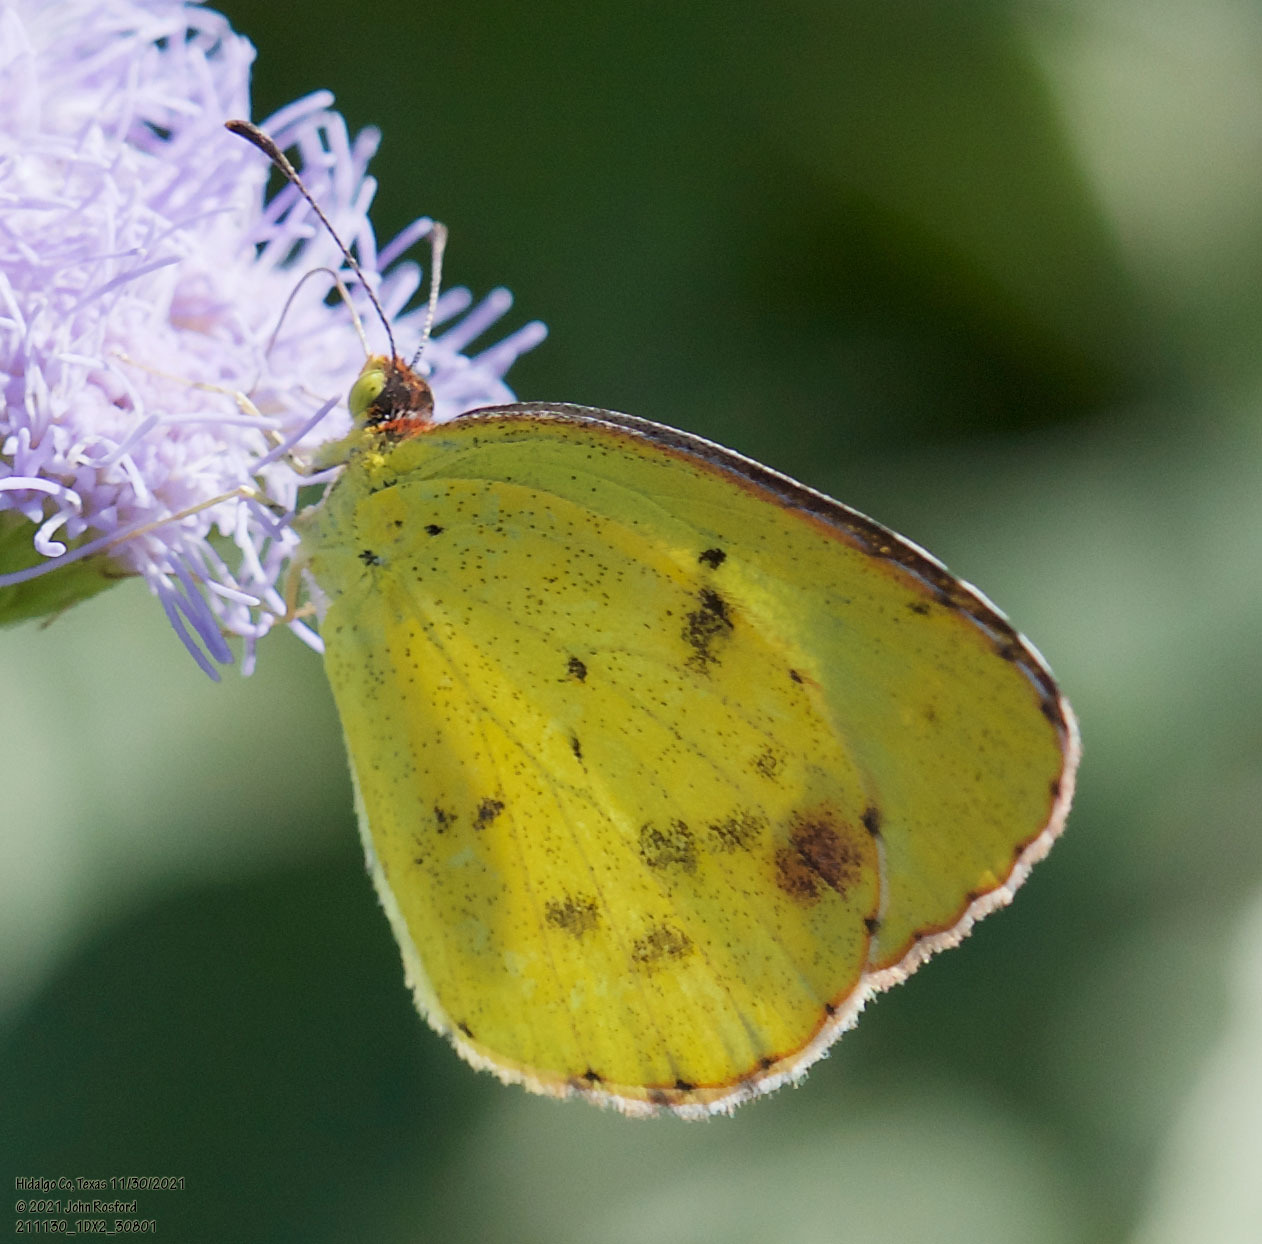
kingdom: Animalia
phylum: Arthropoda
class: Insecta
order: Lepidoptera
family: Pieridae
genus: Pyrisitia
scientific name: Pyrisitia lisa
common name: Little yellow
